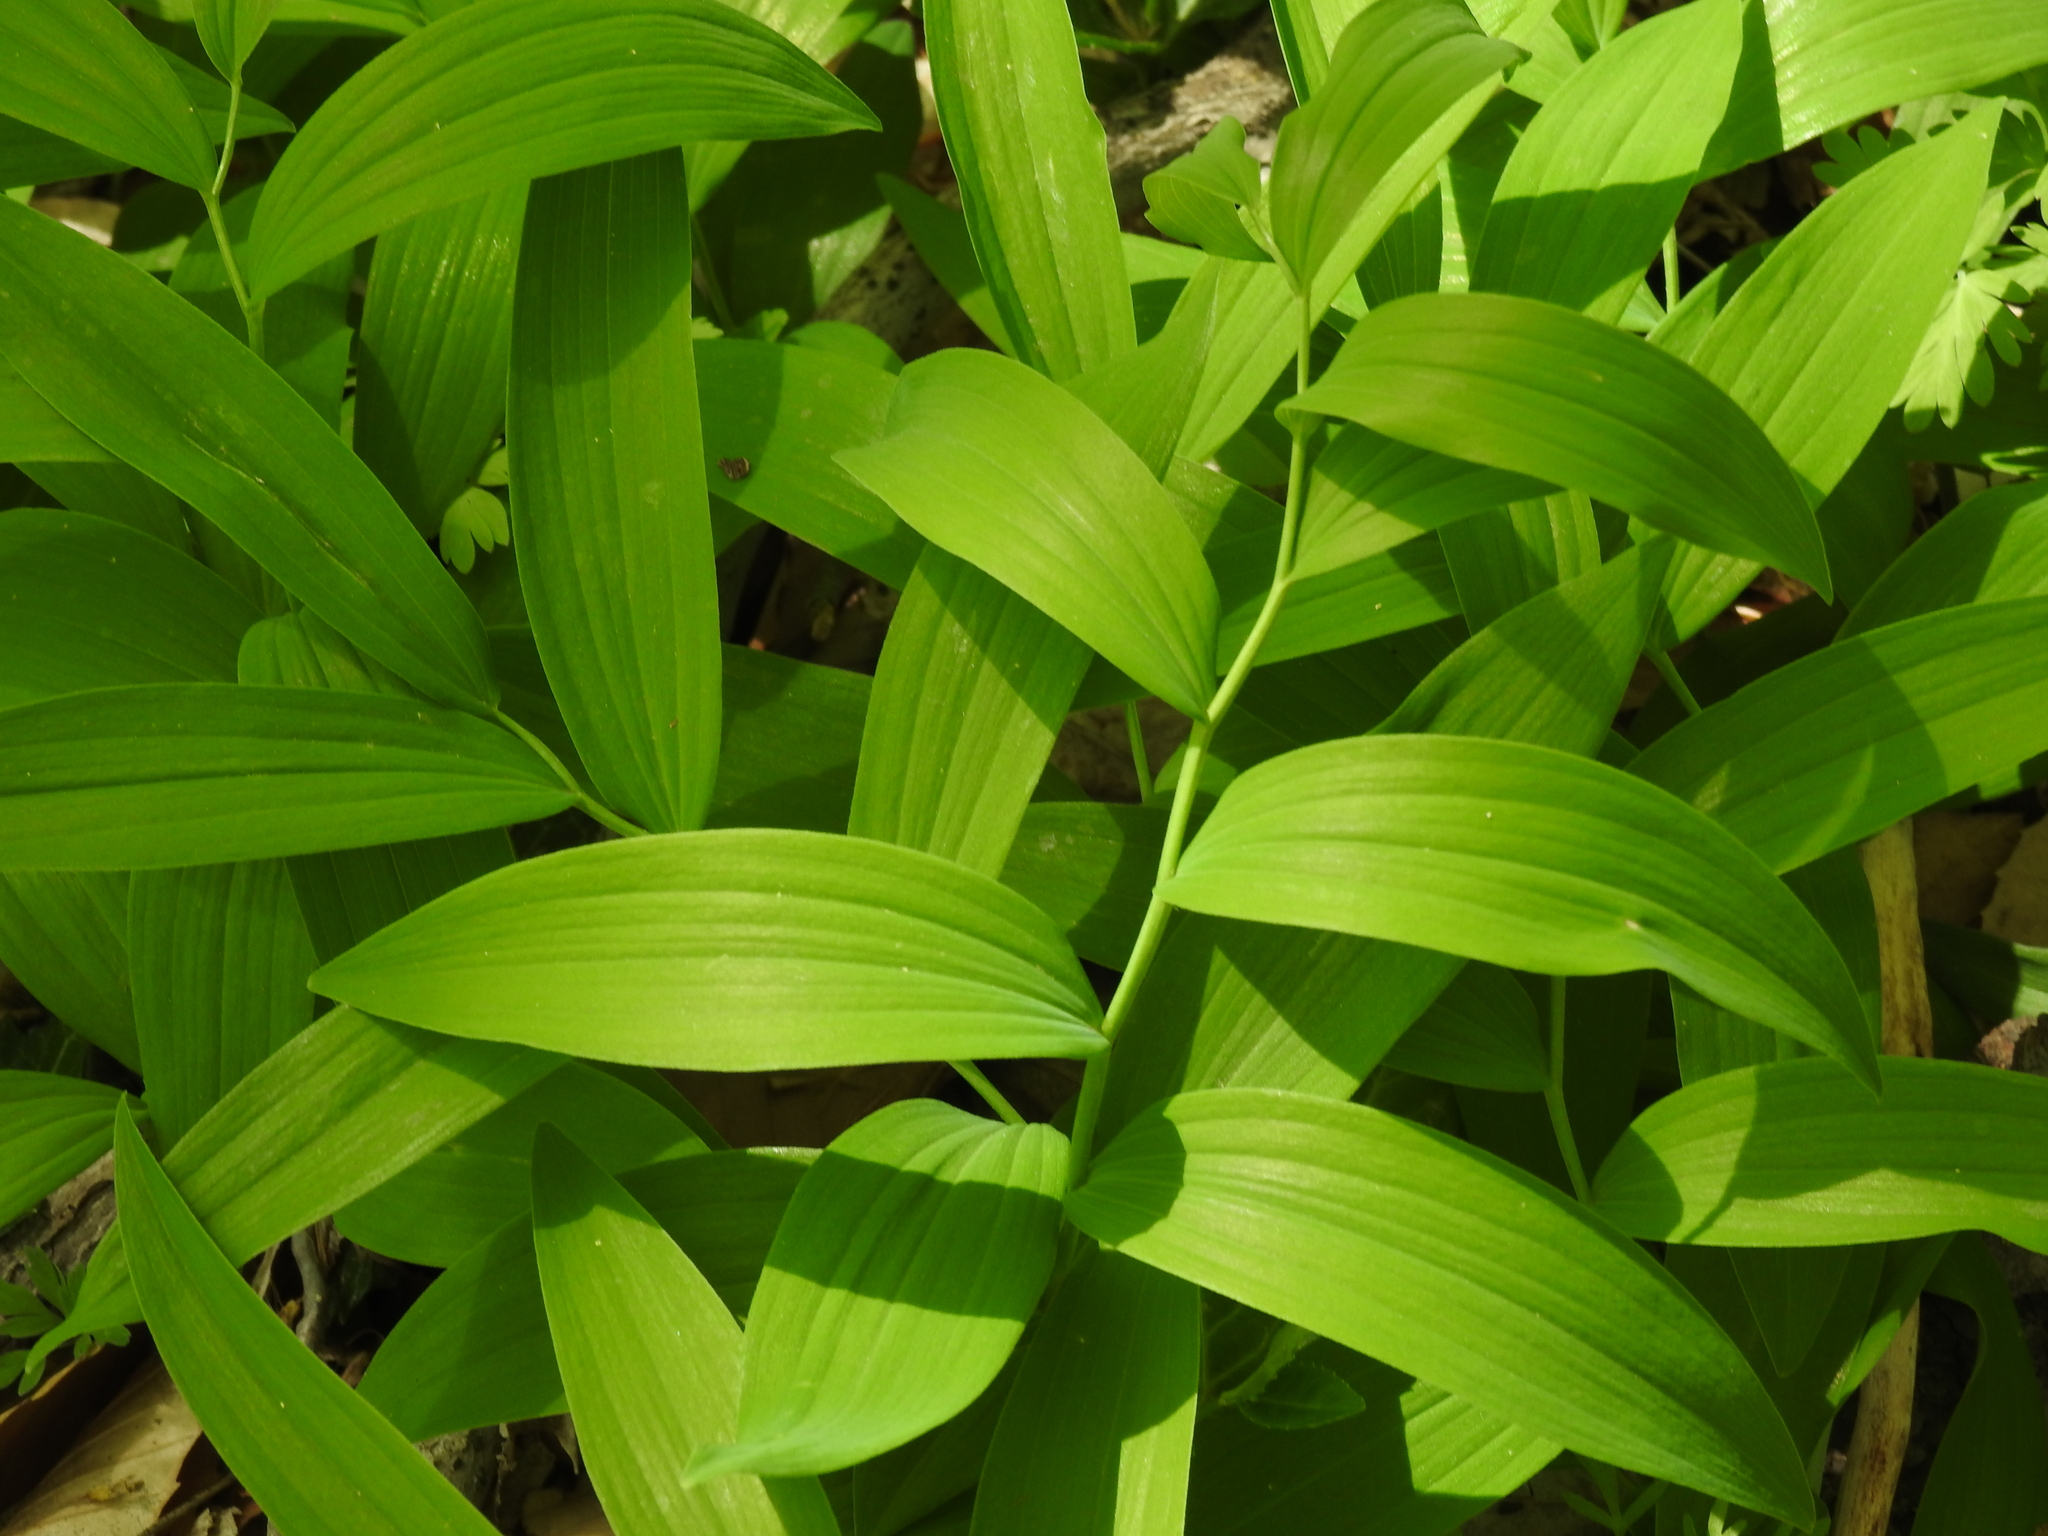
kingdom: Plantae
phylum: Tracheophyta
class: Liliopsida
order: Asparagales
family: Asparagaceae
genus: Polygonatum
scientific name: Polygonatum biflorum
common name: American solomon's-seal
